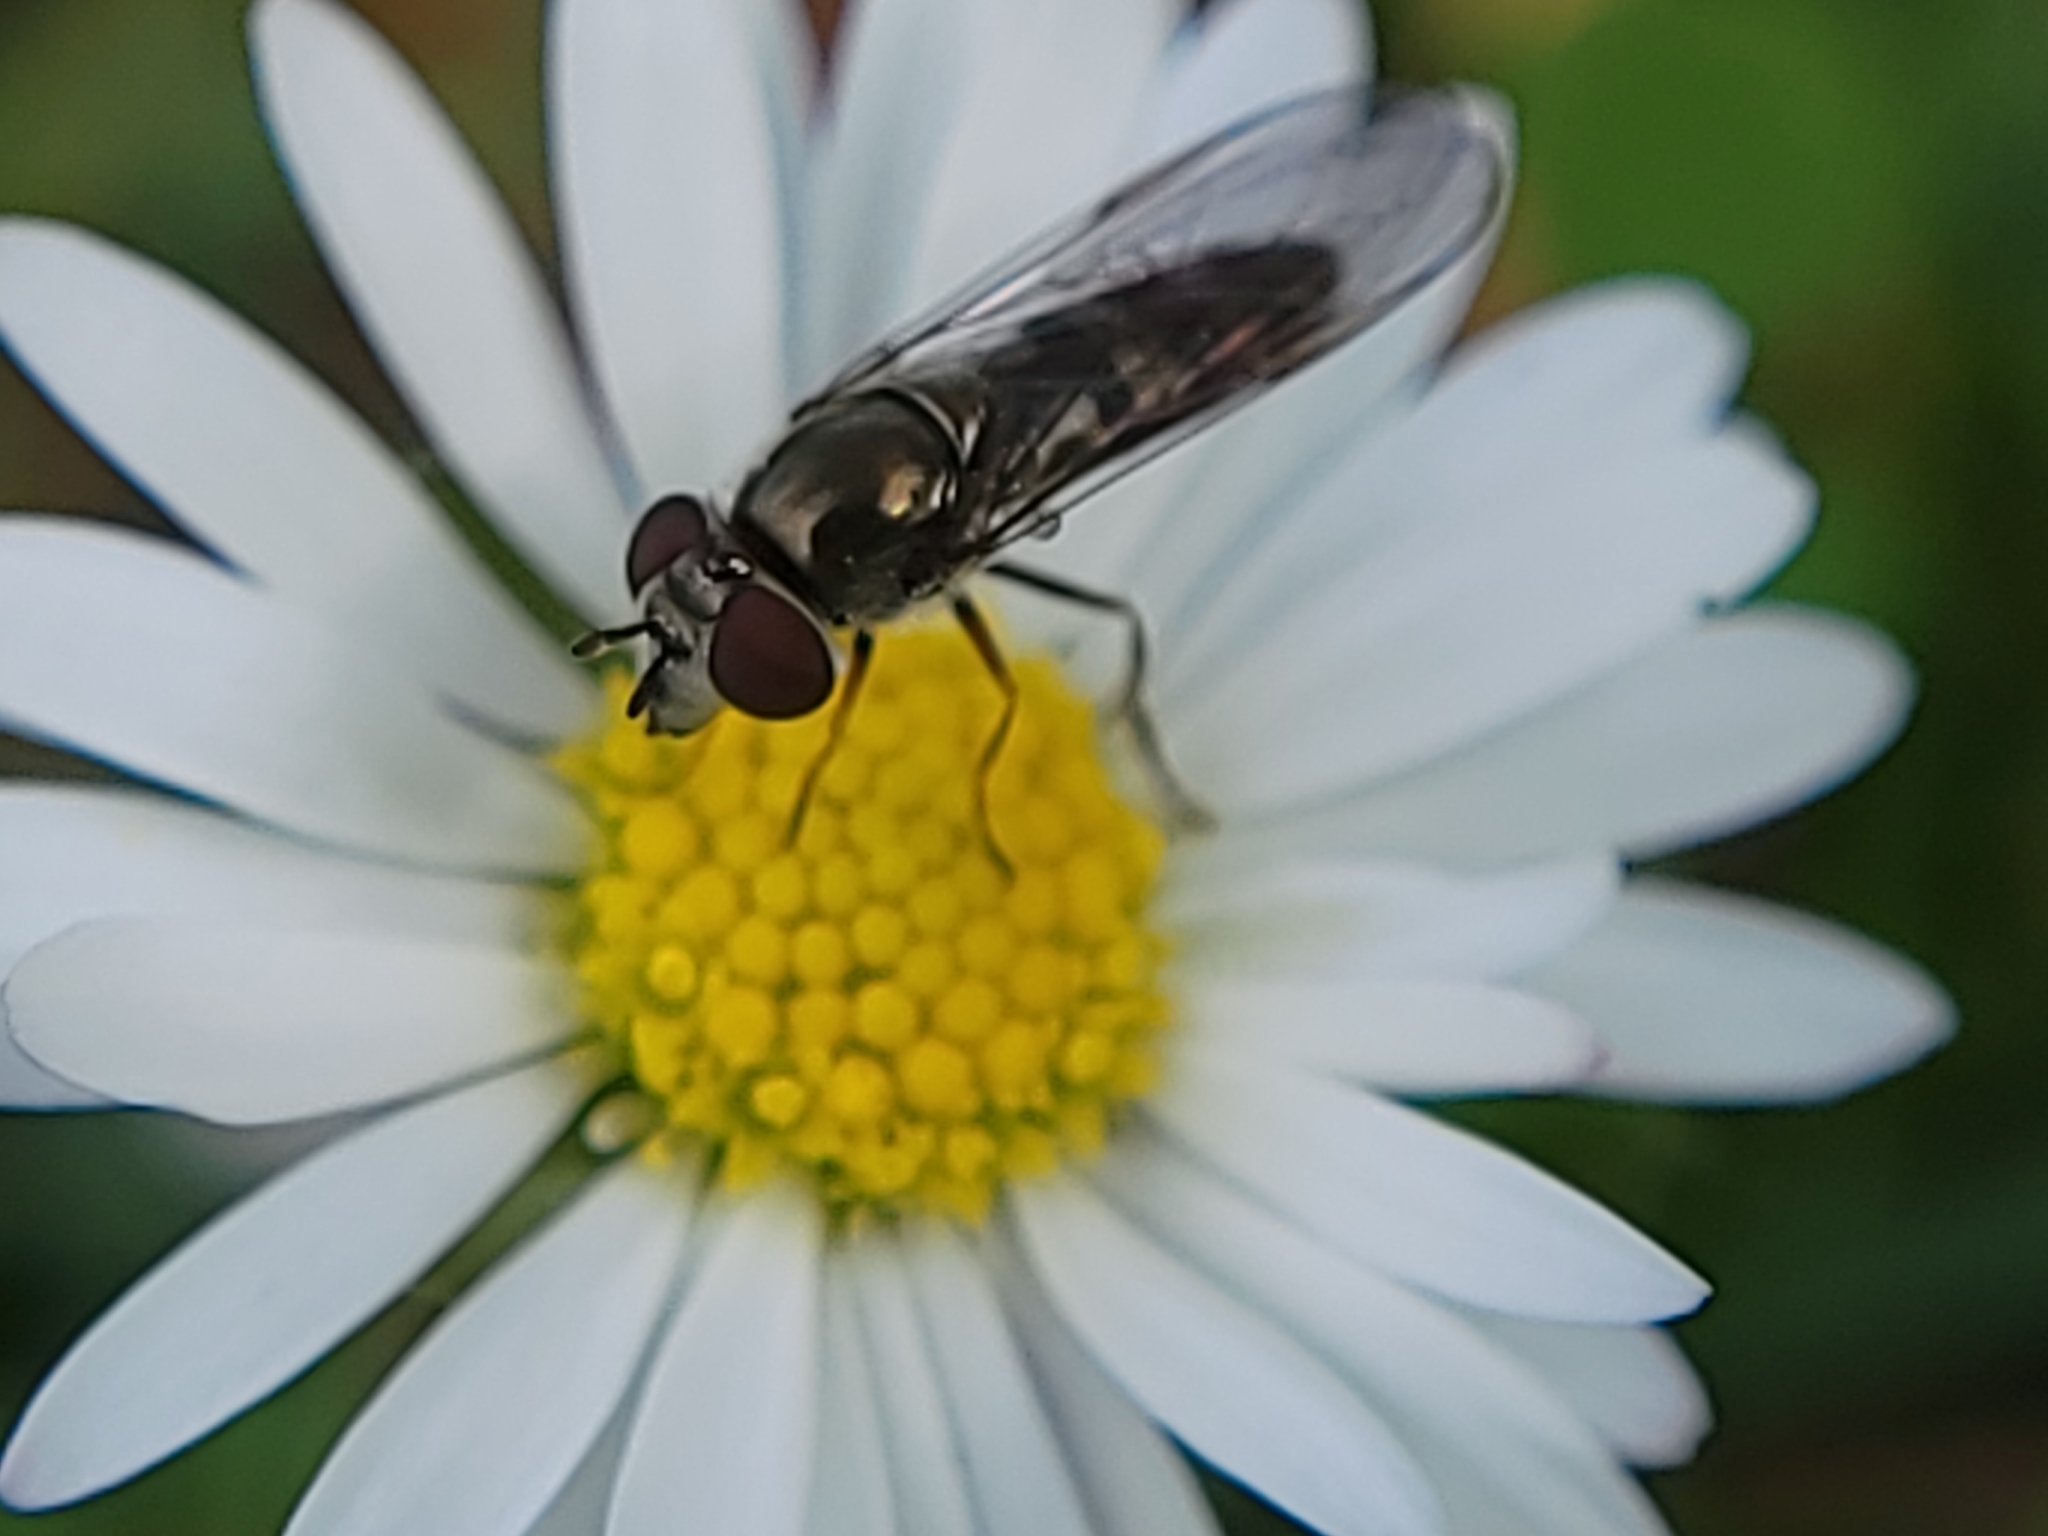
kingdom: Animalia
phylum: Arthropoda
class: Insecta
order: Diptera
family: Syrphidae
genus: Platycheirus
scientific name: Platycheirus trichopus
